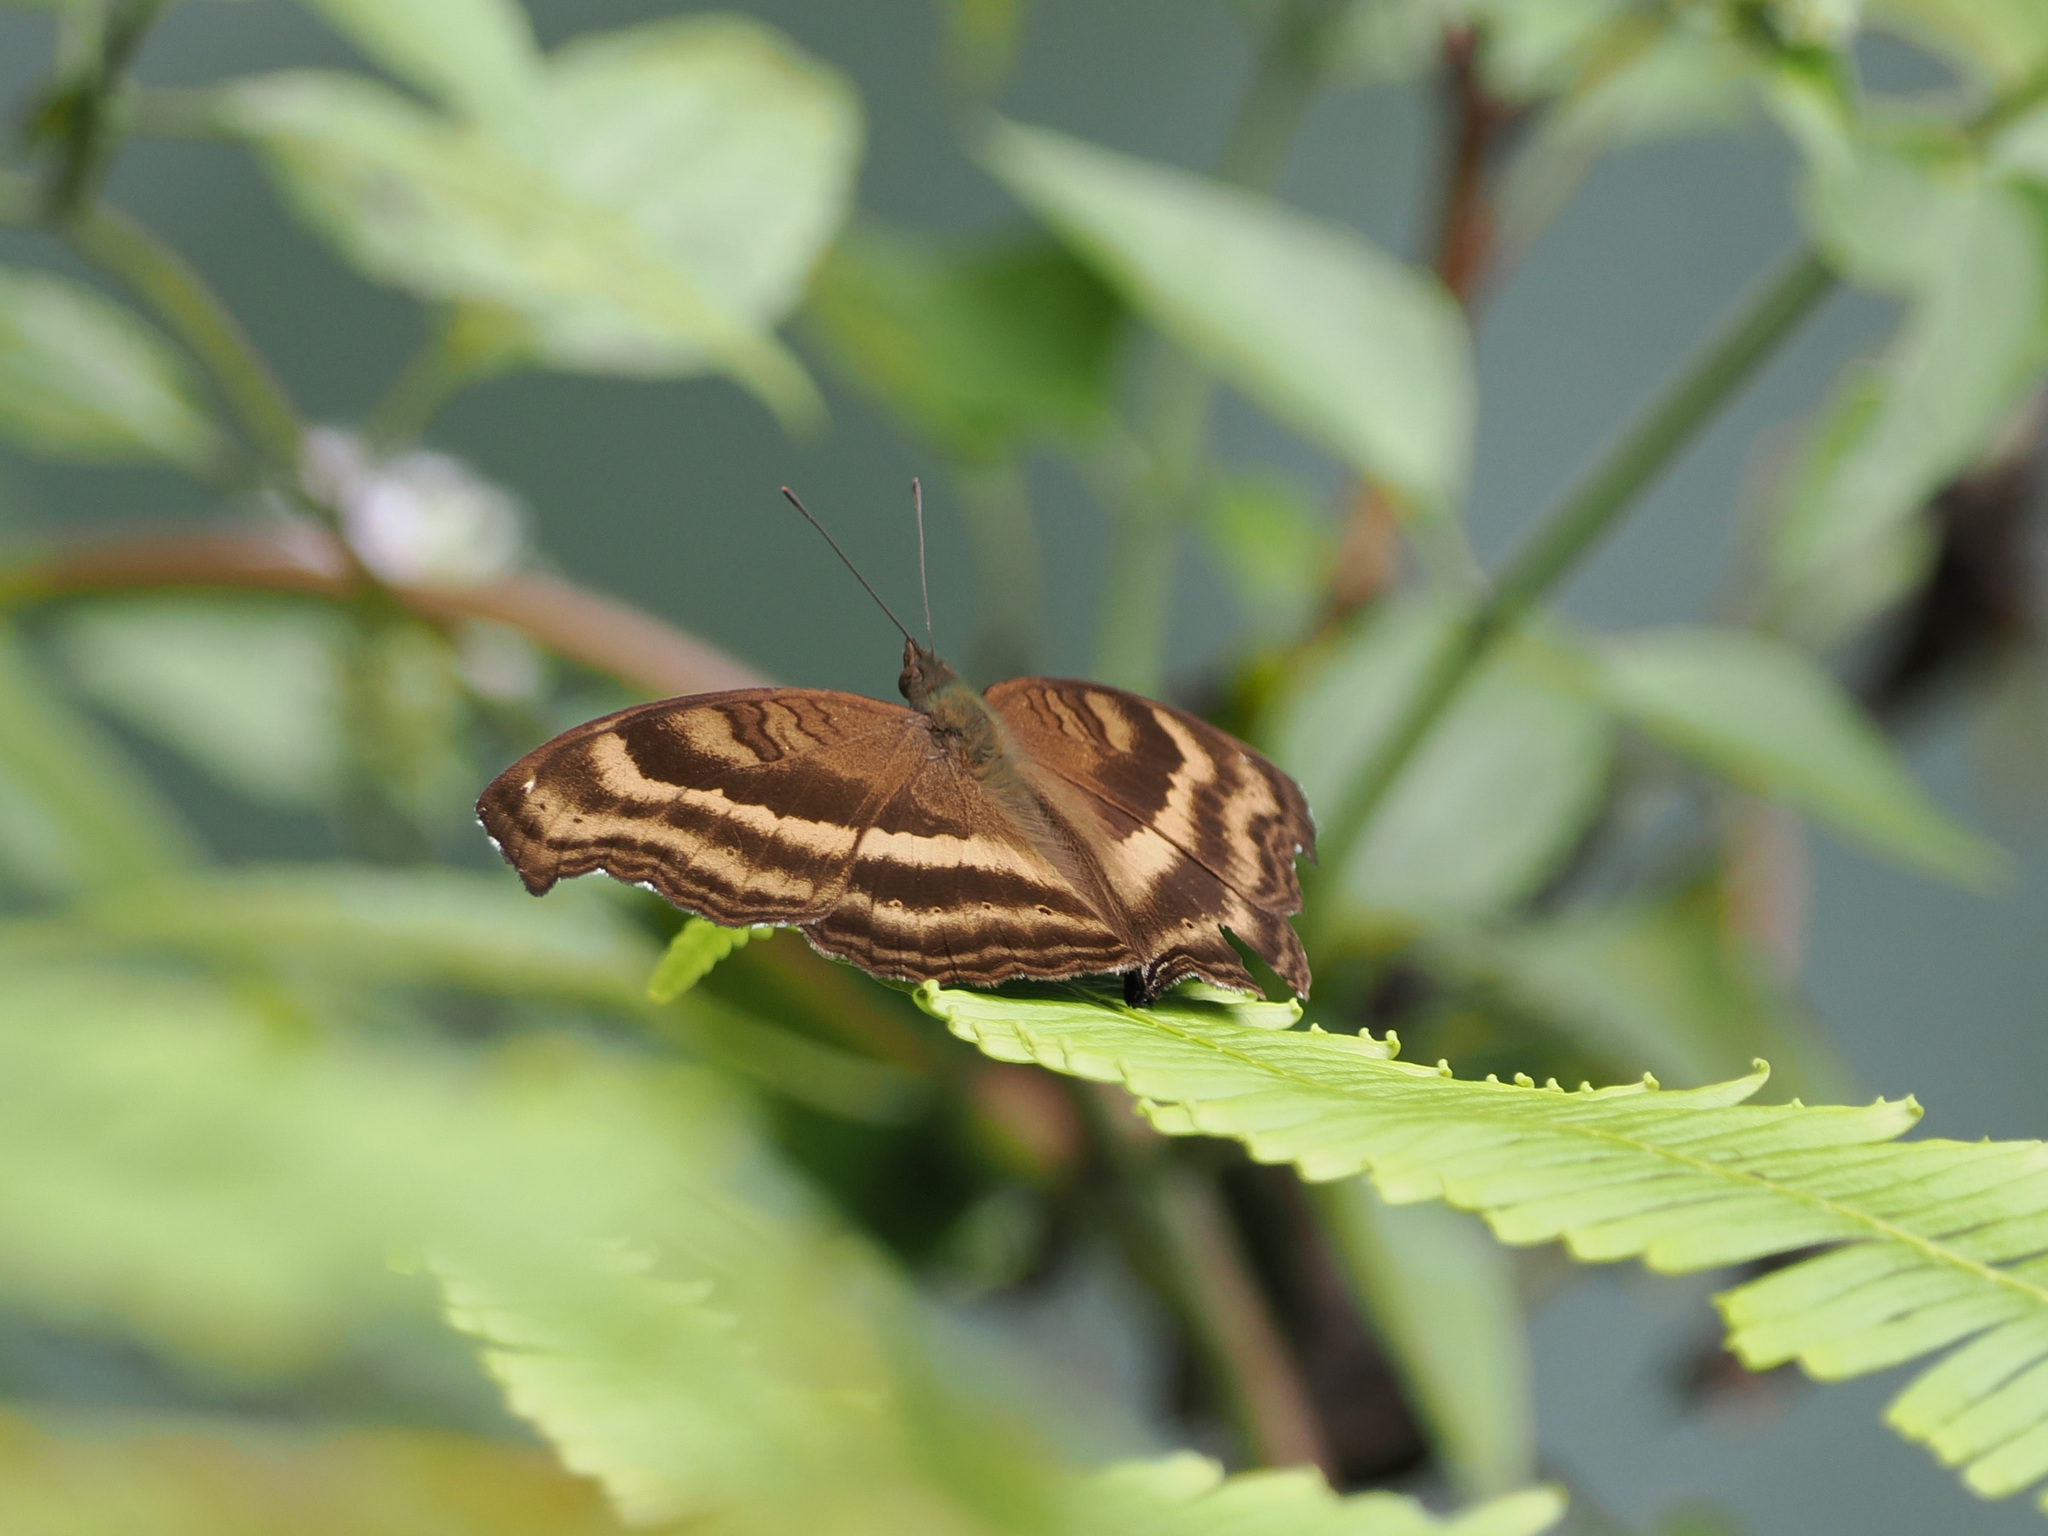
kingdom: Animalia
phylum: Arthropoda
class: Insecta
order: Lepidoptera
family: Nymphalidae
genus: Junonia
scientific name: Junonia iphita
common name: Chocolate pansy
